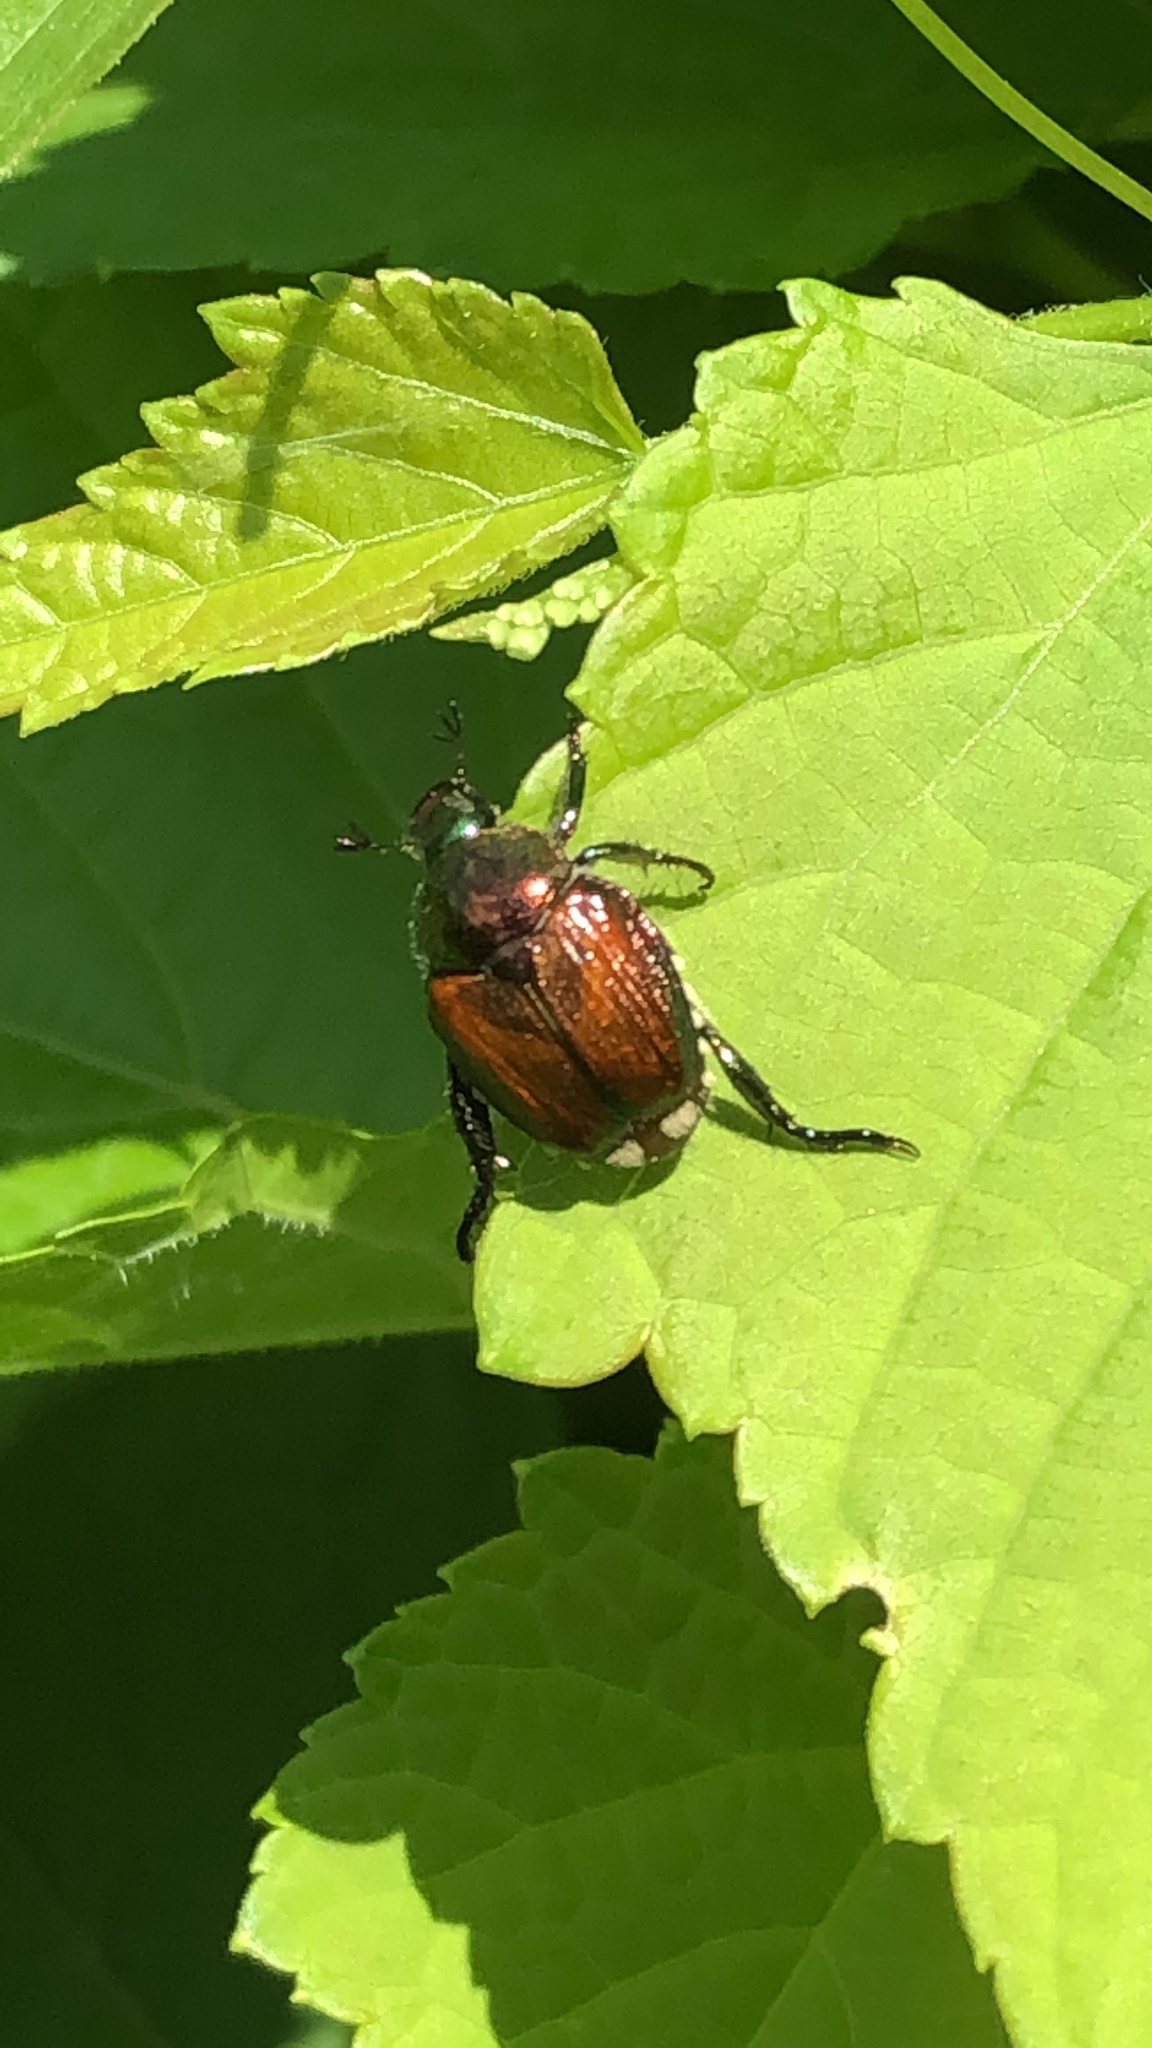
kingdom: Animalia
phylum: Arthropoda
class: Insecta
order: Coleoptera
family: Scarabaeidae
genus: Popillia
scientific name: Popillia japonica
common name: Japanese beetle
